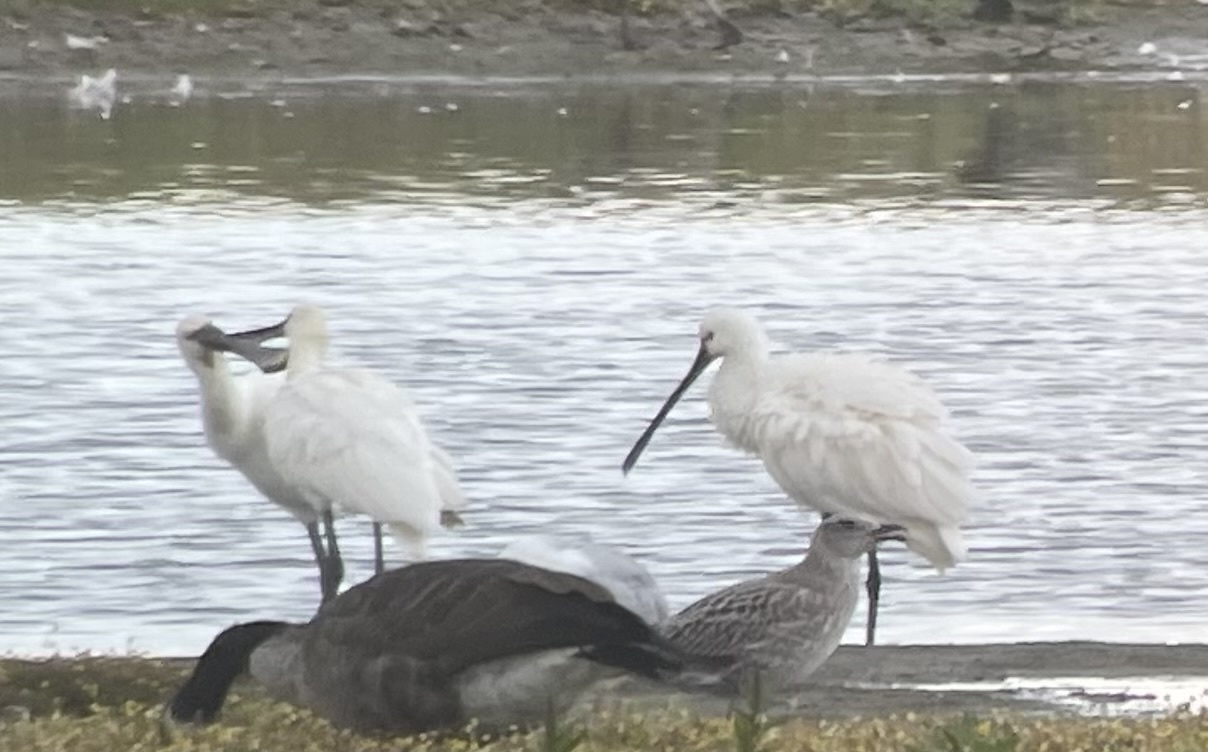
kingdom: Animalia
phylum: Chordata
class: Aves
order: Pelecaniformes
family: Threskiornithidae
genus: Platalea
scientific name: Platalea leucorodia
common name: Eurasian spoonbill
